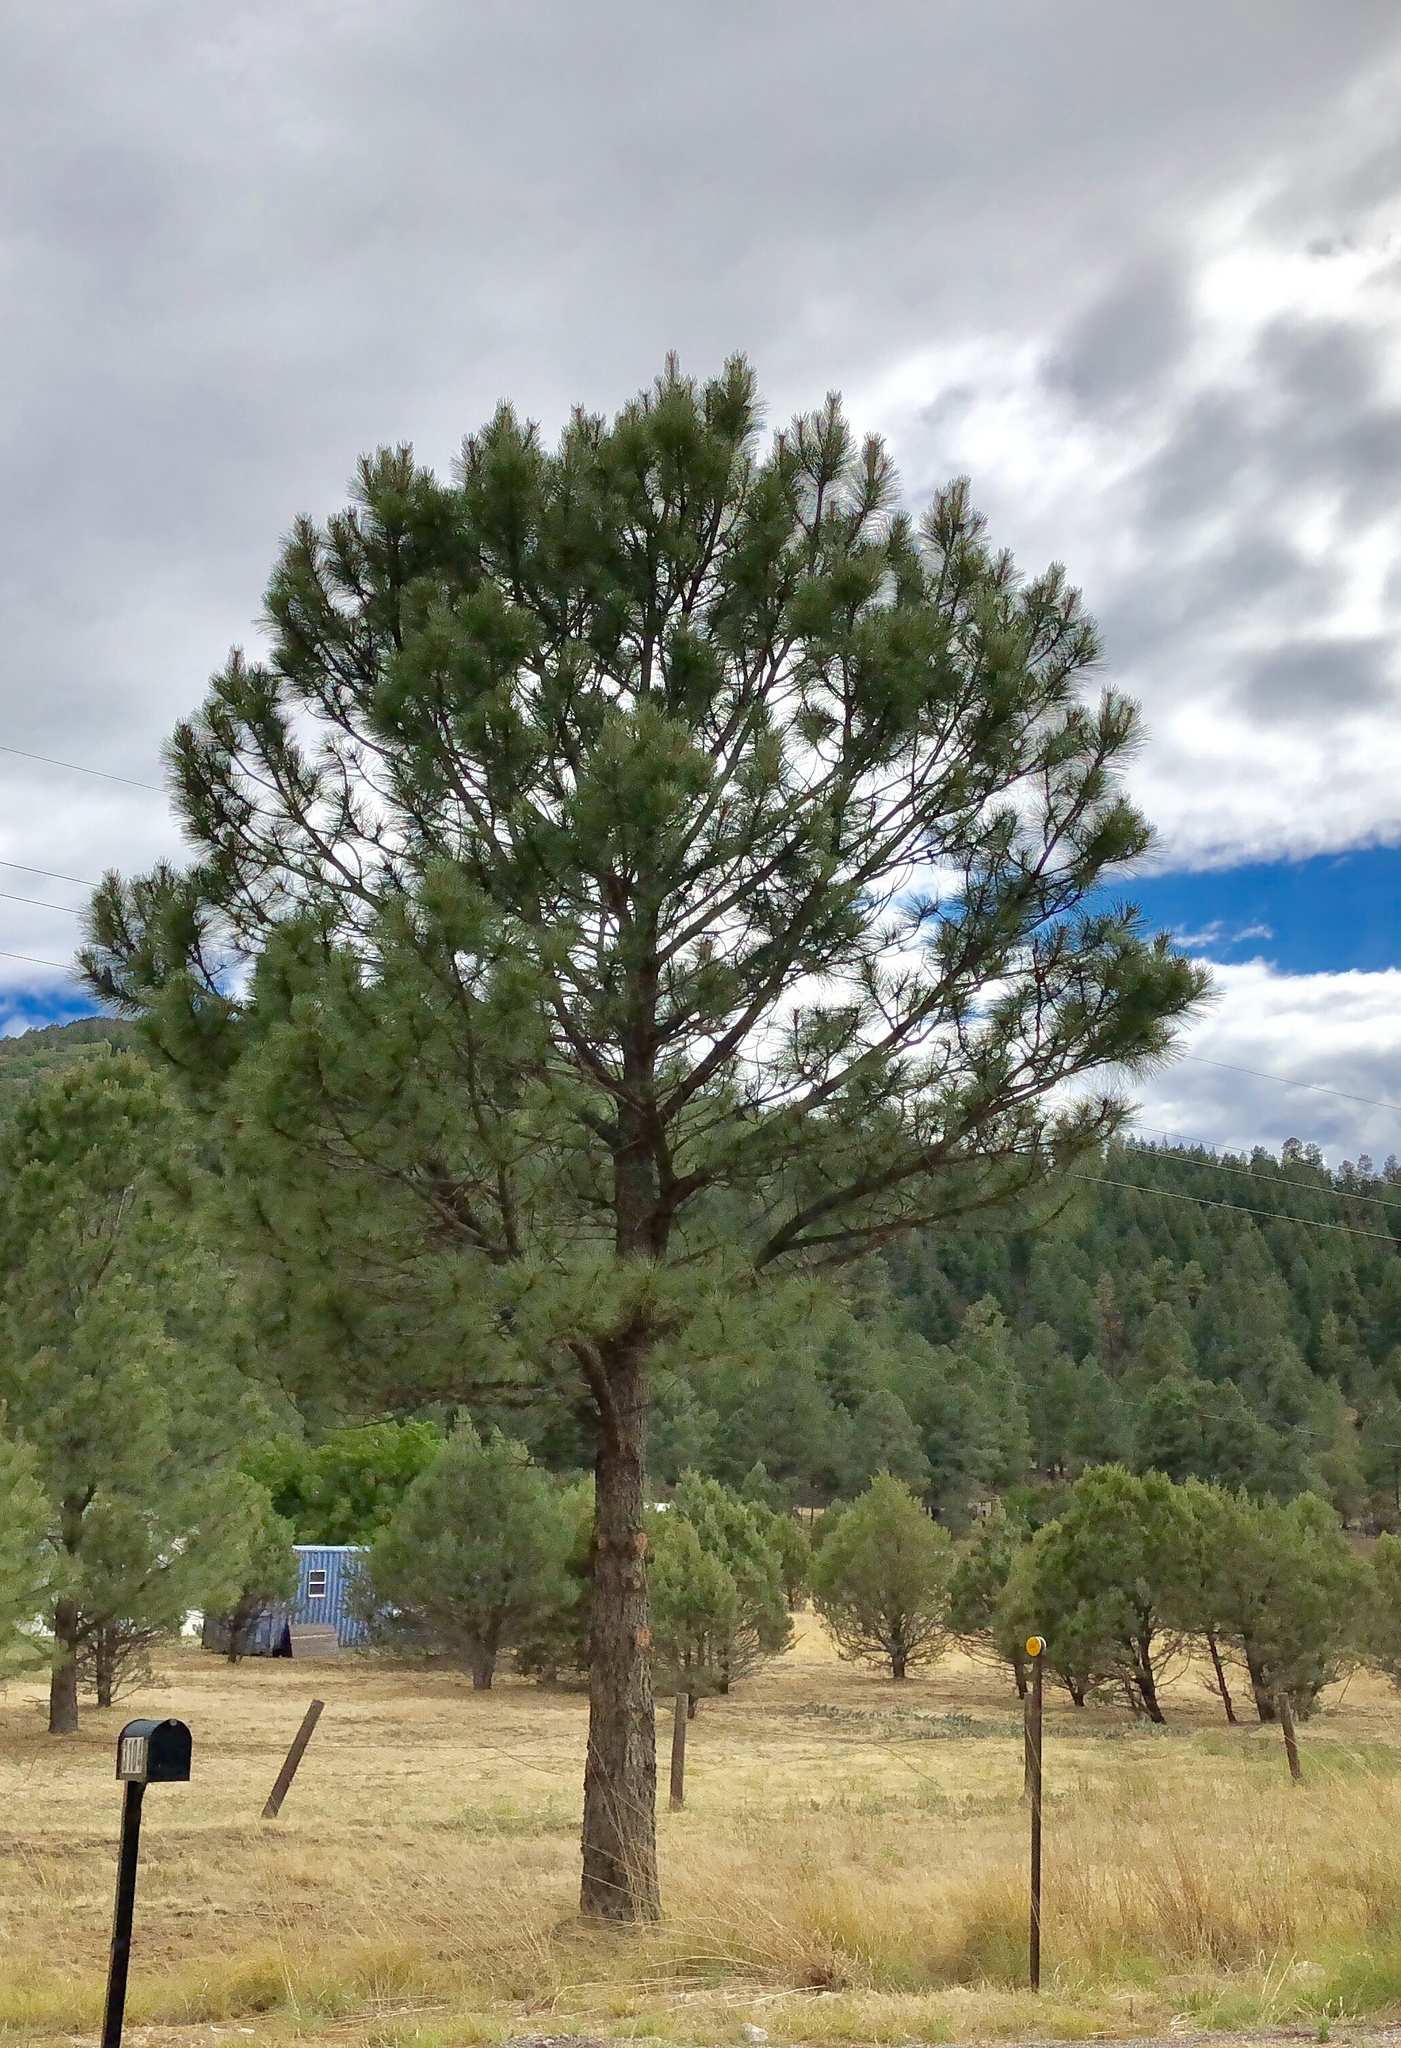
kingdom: Plantae
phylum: Tracheophyta
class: Pinopsida
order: Pinales
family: Pinaceae
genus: Pinus
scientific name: Pinus ponderosa
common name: Western yellow-pine
